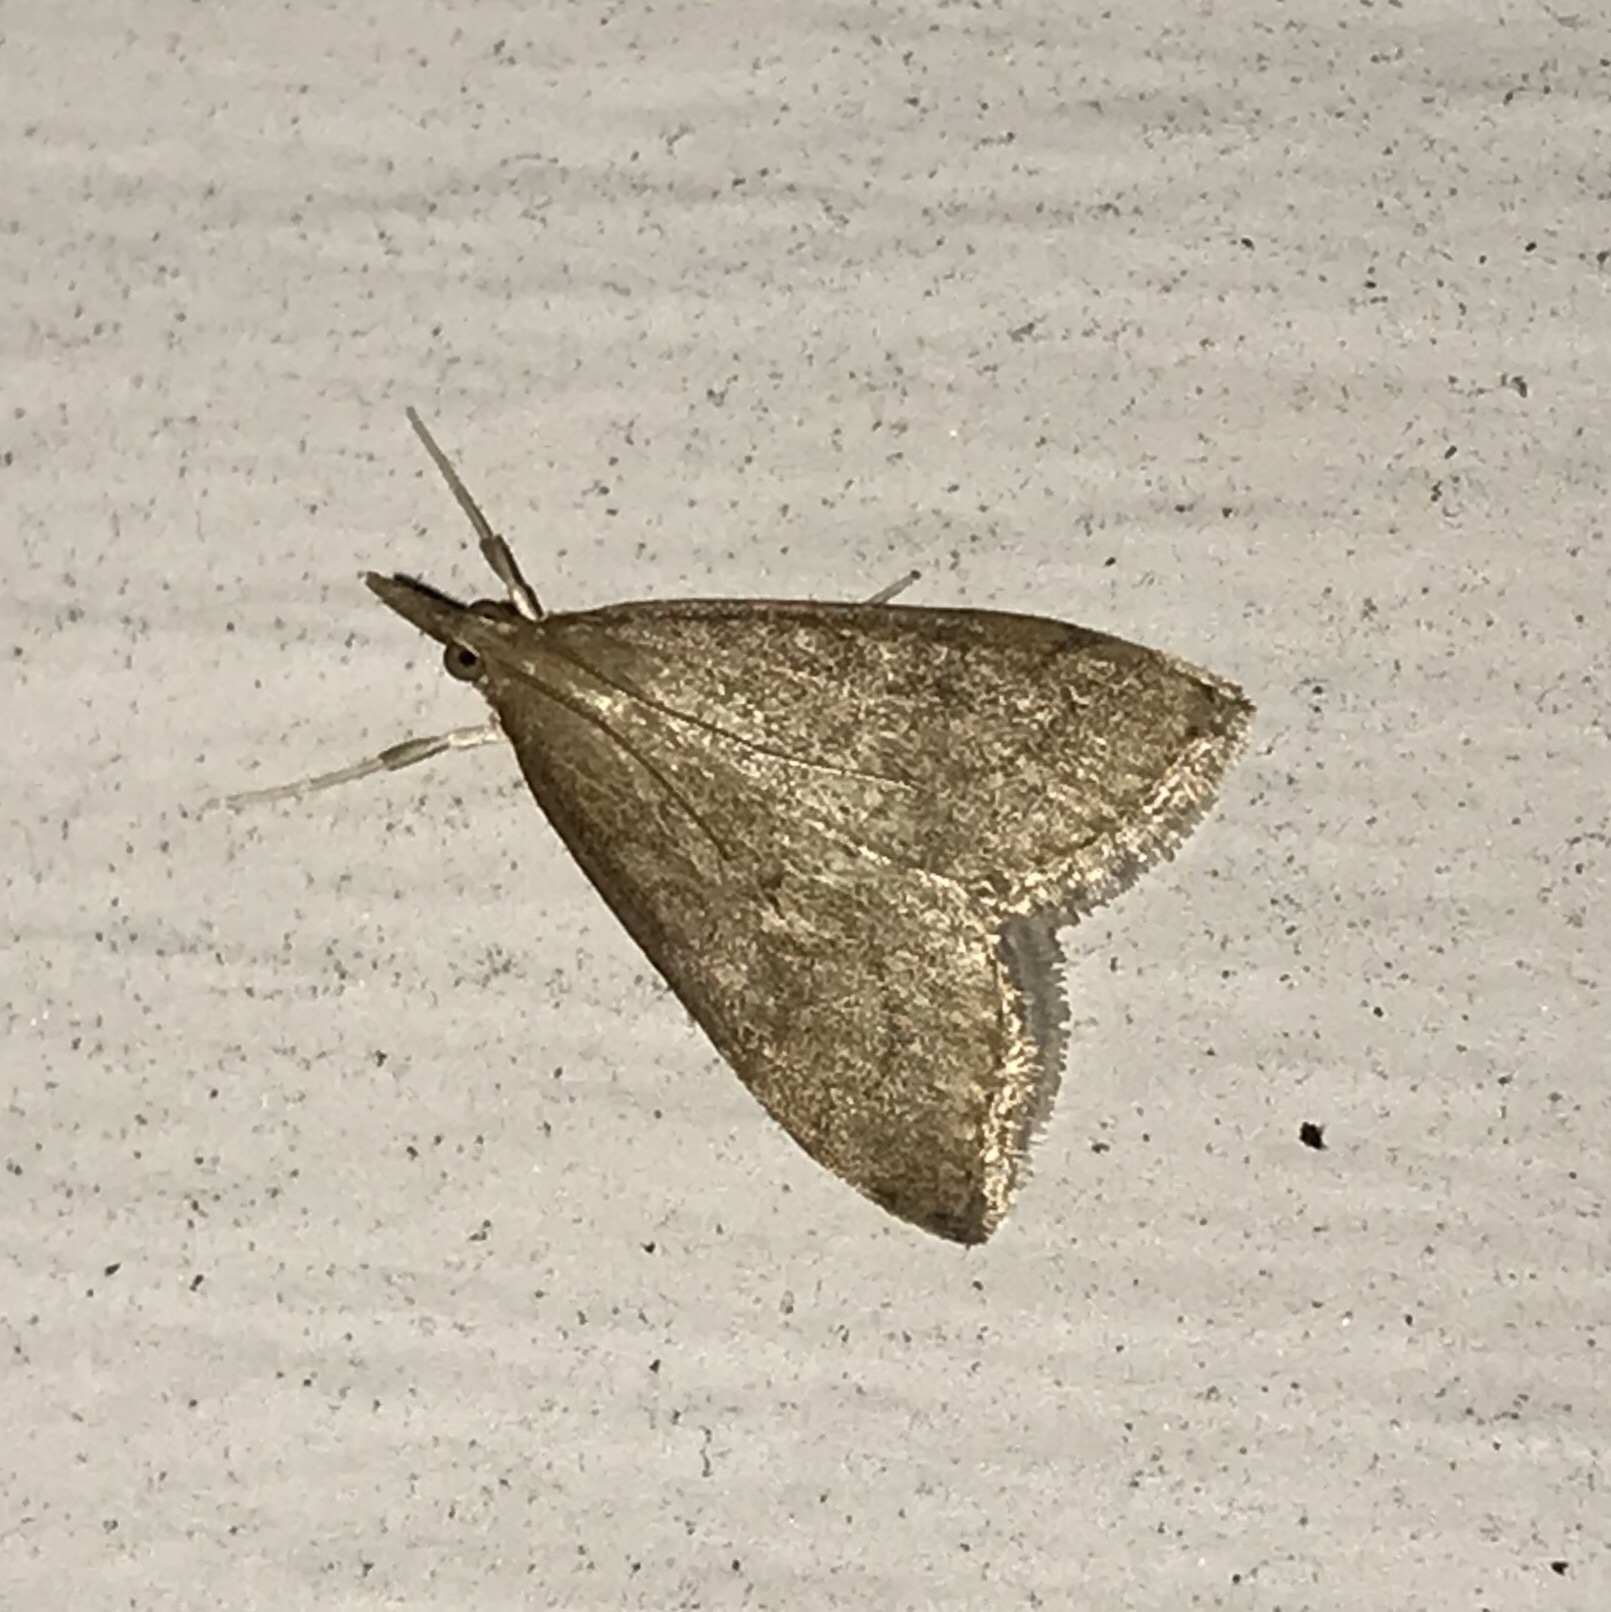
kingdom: Animalia
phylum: Arthropoda
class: Insecta
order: Lepidoptera
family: Crambidae
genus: Udea
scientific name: Udea rubigalis
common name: Celery leaftier moth
